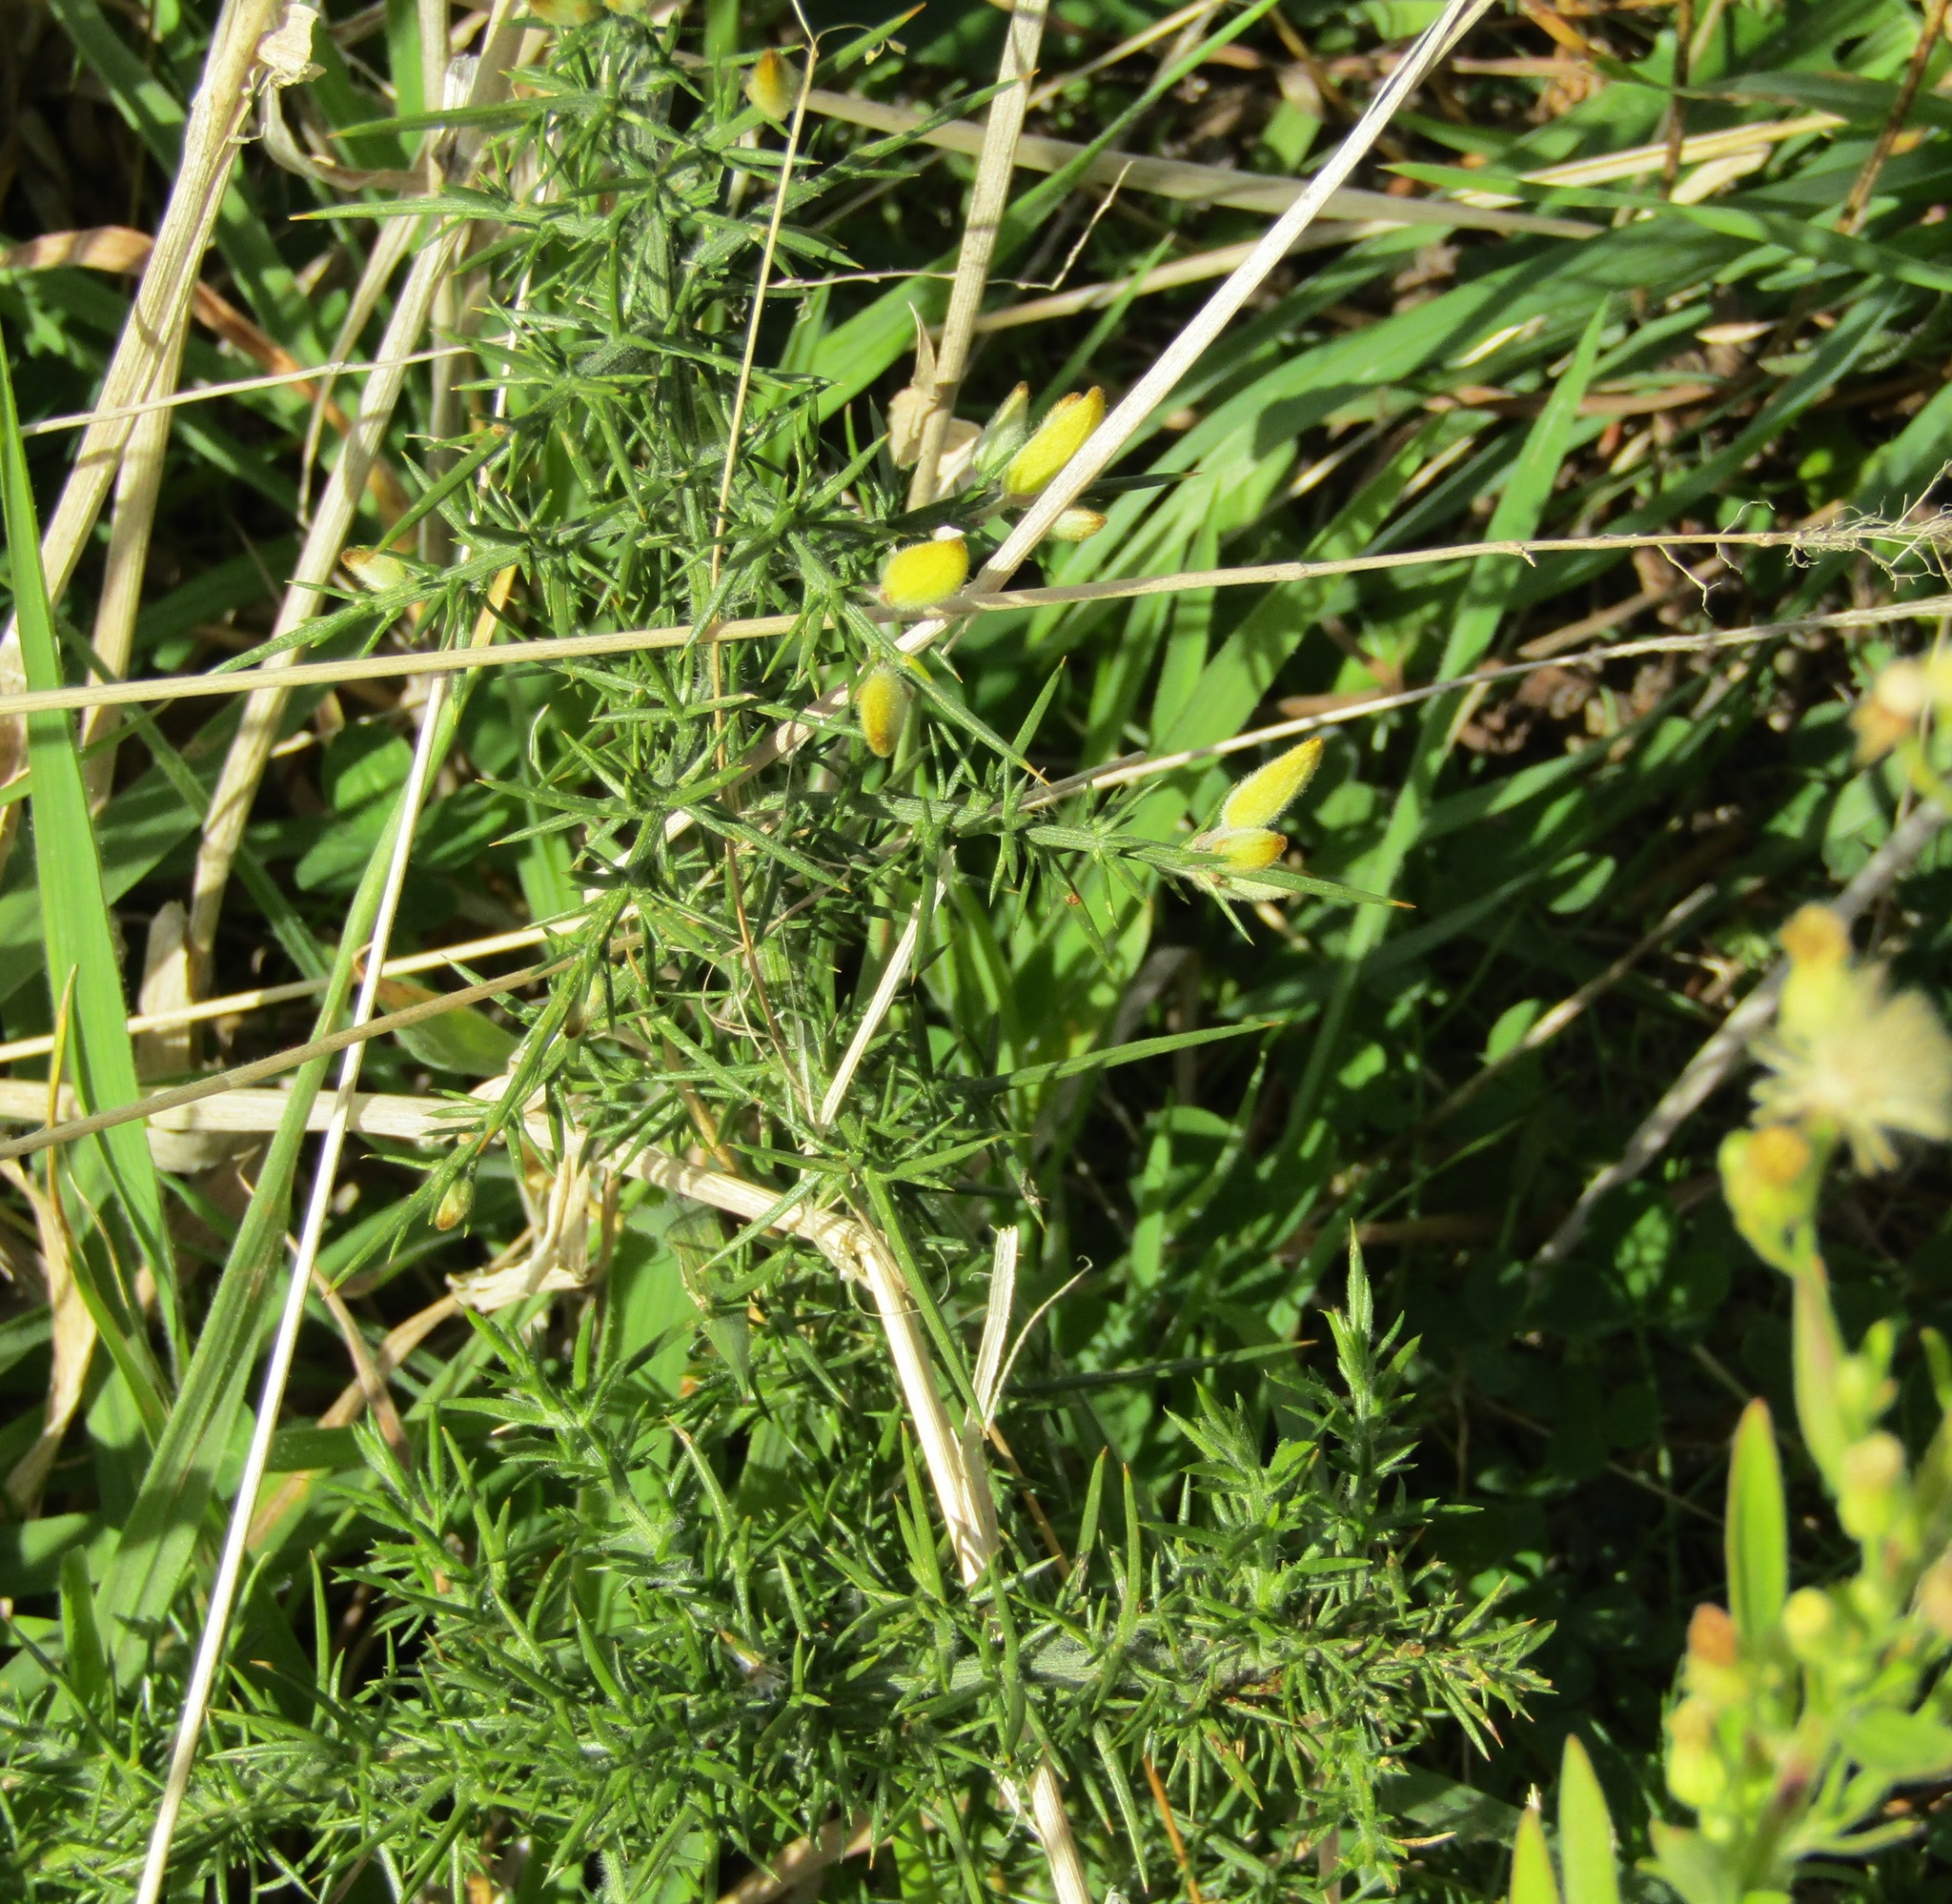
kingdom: Plantae
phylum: Tracheophyta
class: Magnoliopsida
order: Fabales
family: Fabaceae
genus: Ulex
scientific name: Ulex europaeus
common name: Common gorse
